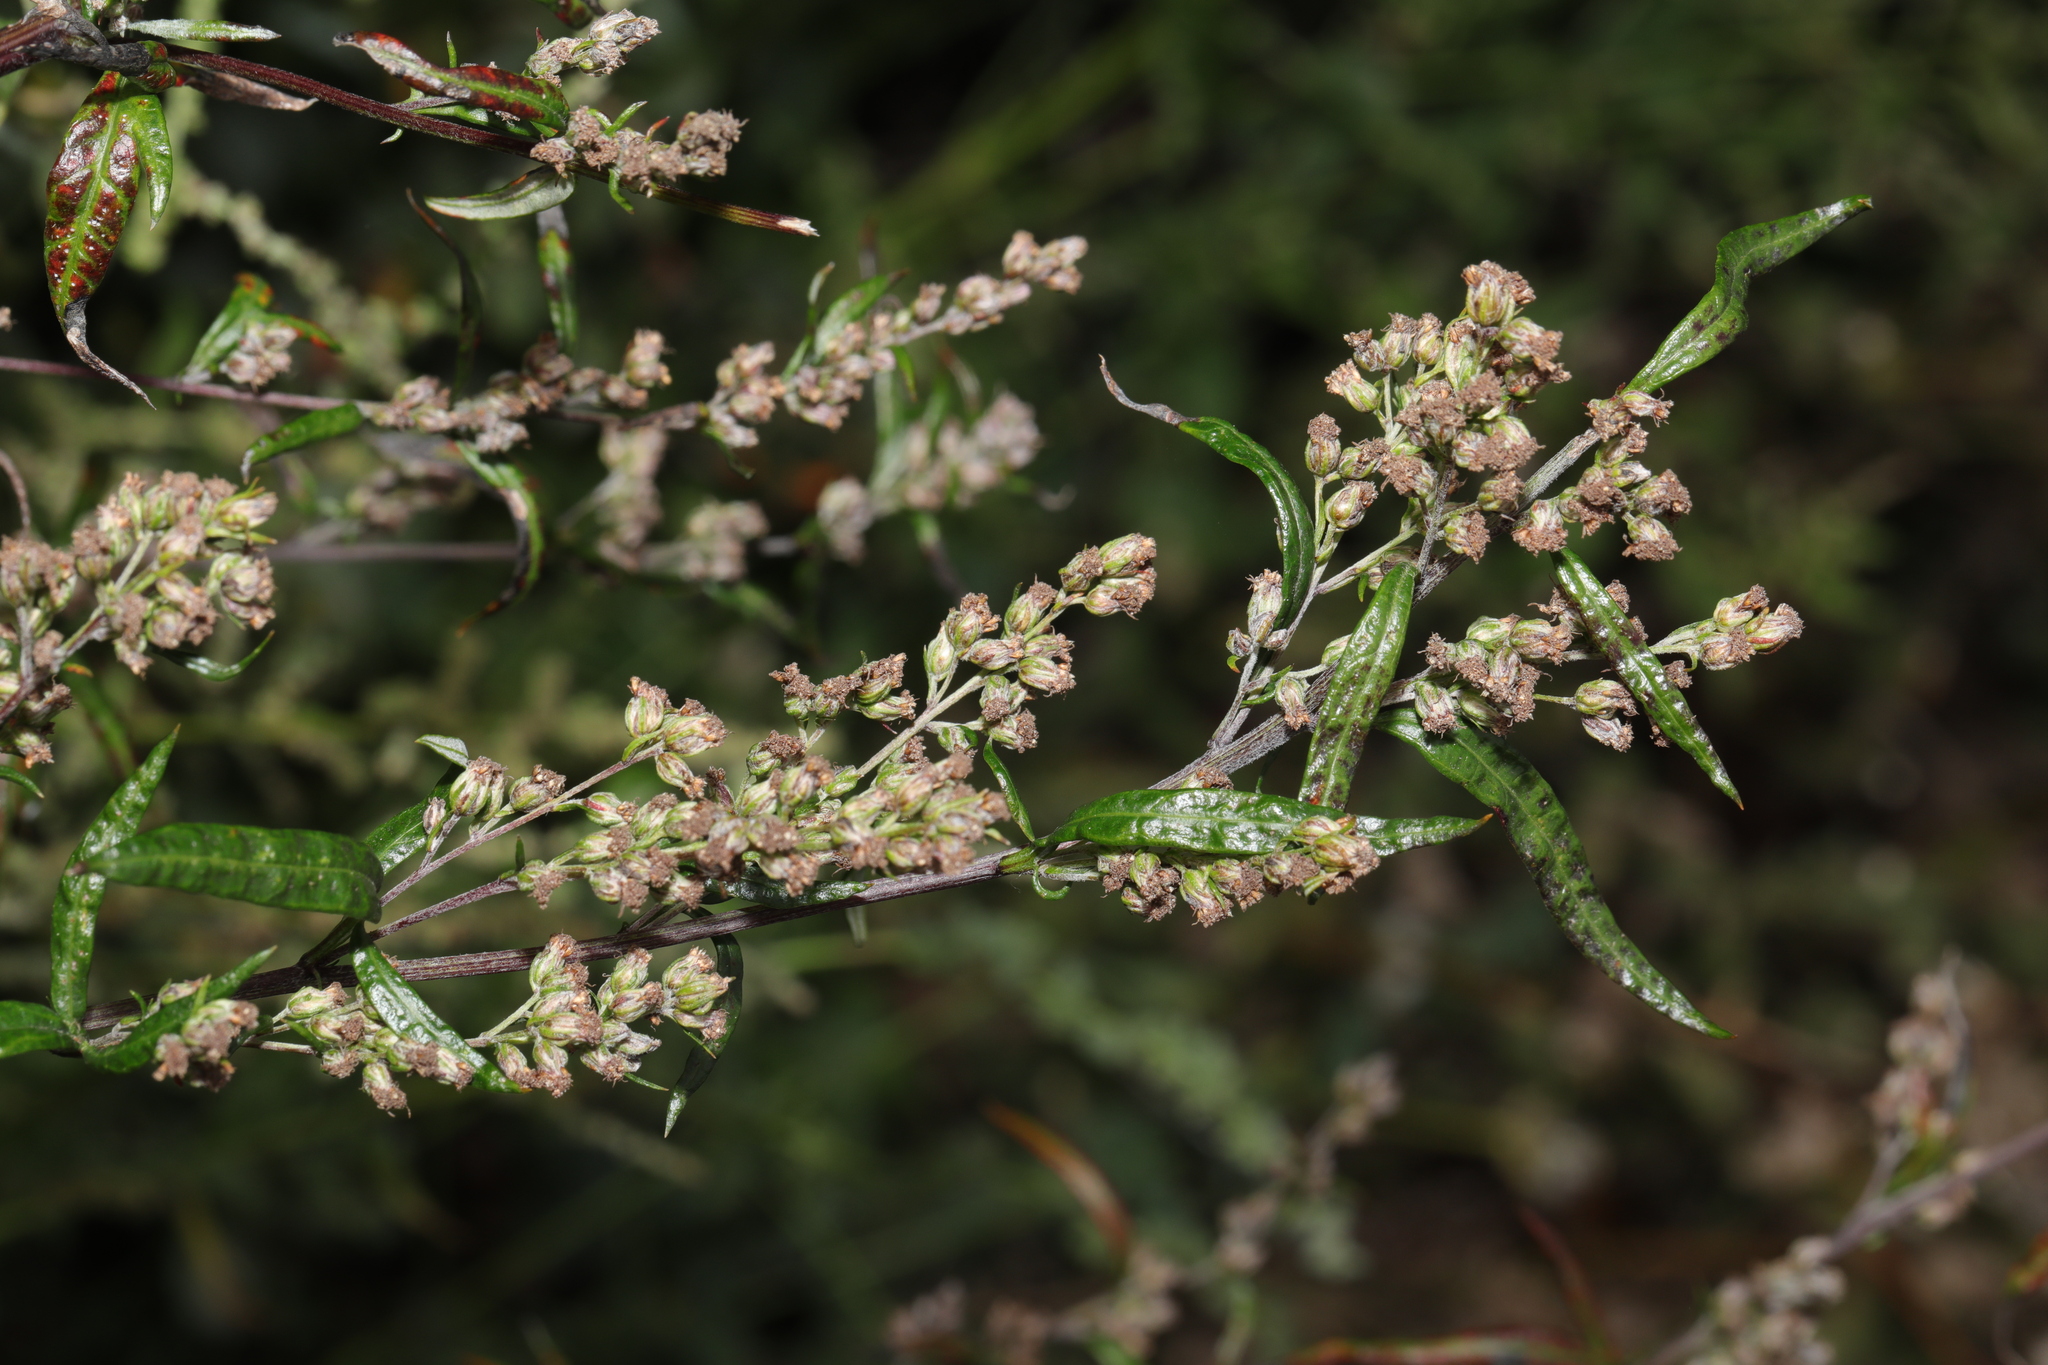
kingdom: Plantae
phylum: Tracheophyta
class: Magnoliopsida
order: Asterales
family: Asteraceae
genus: Artemisia
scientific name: Artemisia vulgaris
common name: Mugwort
